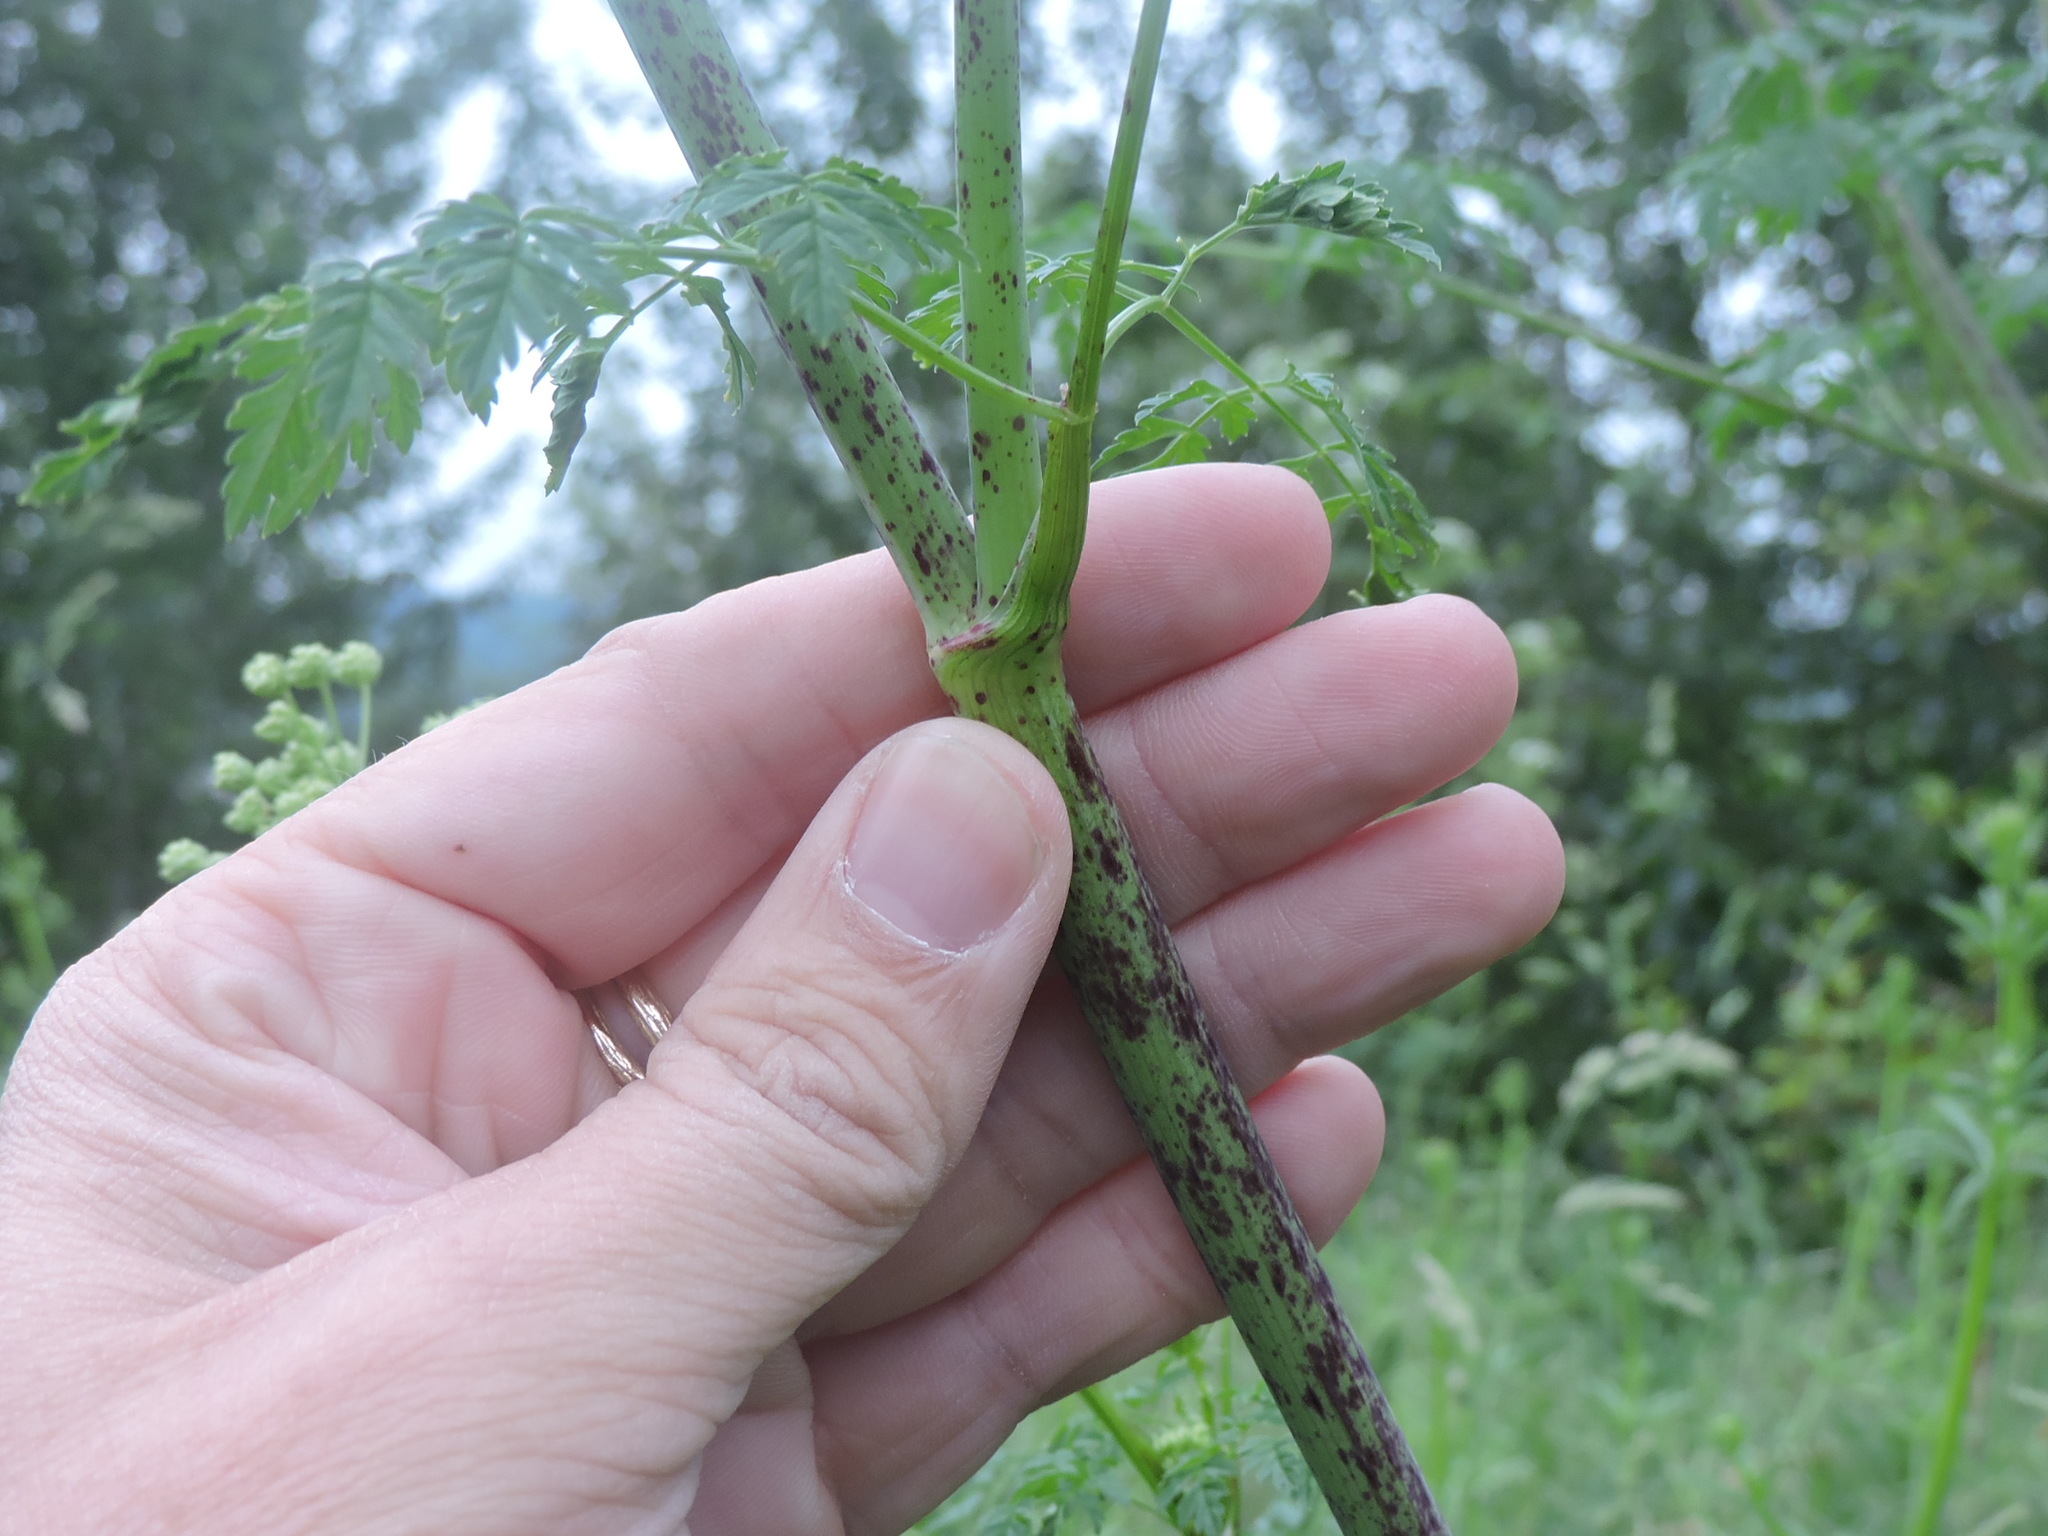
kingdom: Plantae
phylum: Tracheophyta
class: Magnoliopsida
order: Apiales
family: Apiaceae
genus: Conium
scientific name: Conium maculatum
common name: Hemlock
